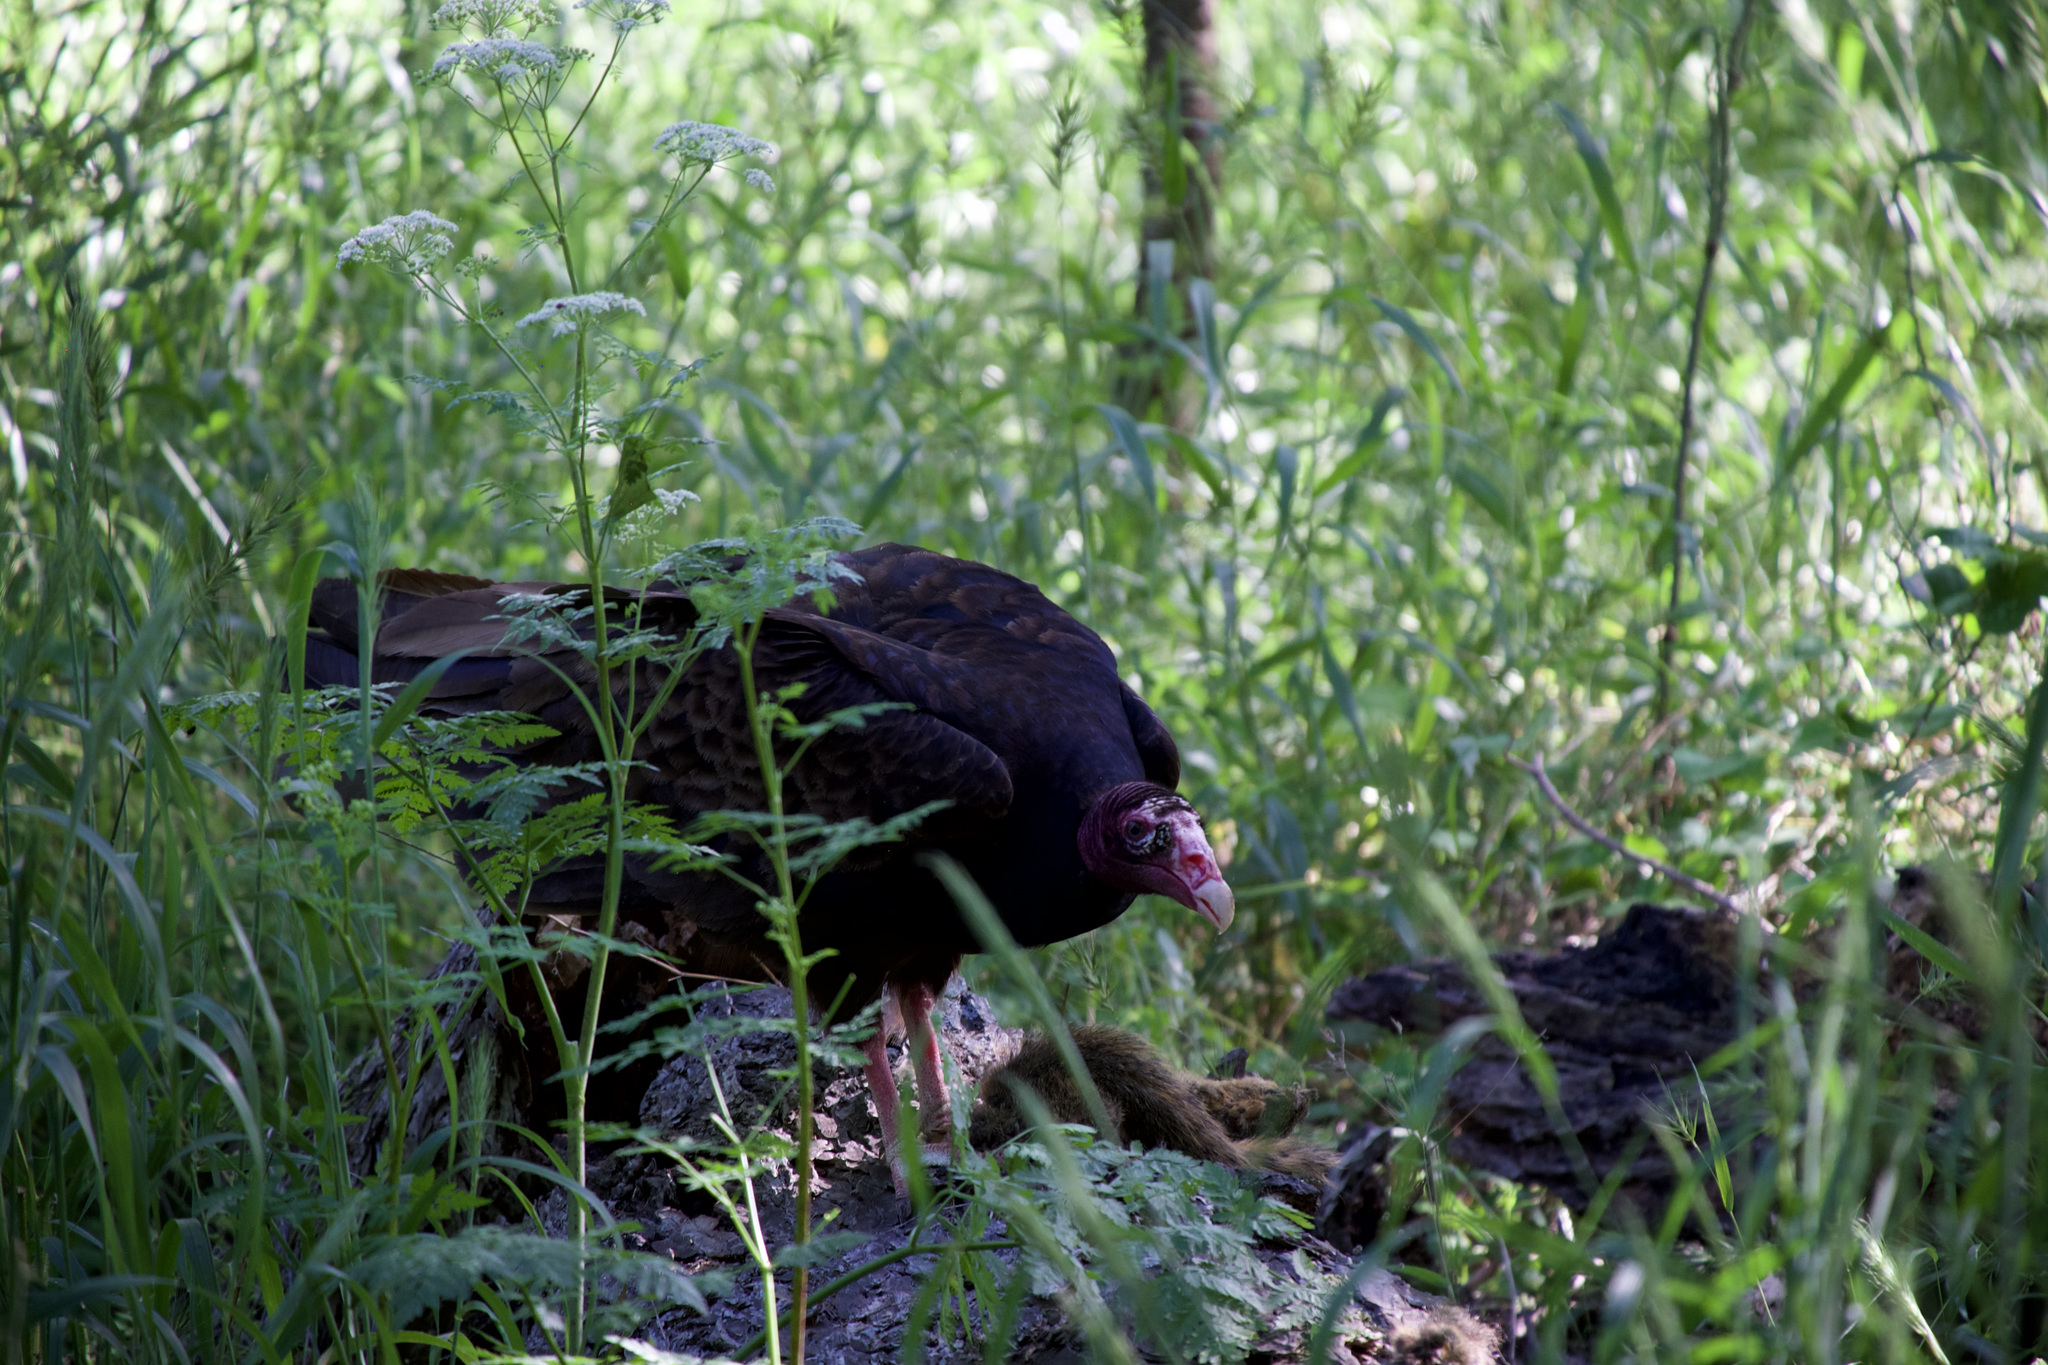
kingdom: Animalia
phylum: Chordata
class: Aves
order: Accipitriformes
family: Cathartidae
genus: Cathartes
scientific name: Cathartes aura
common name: Turkey vulture
